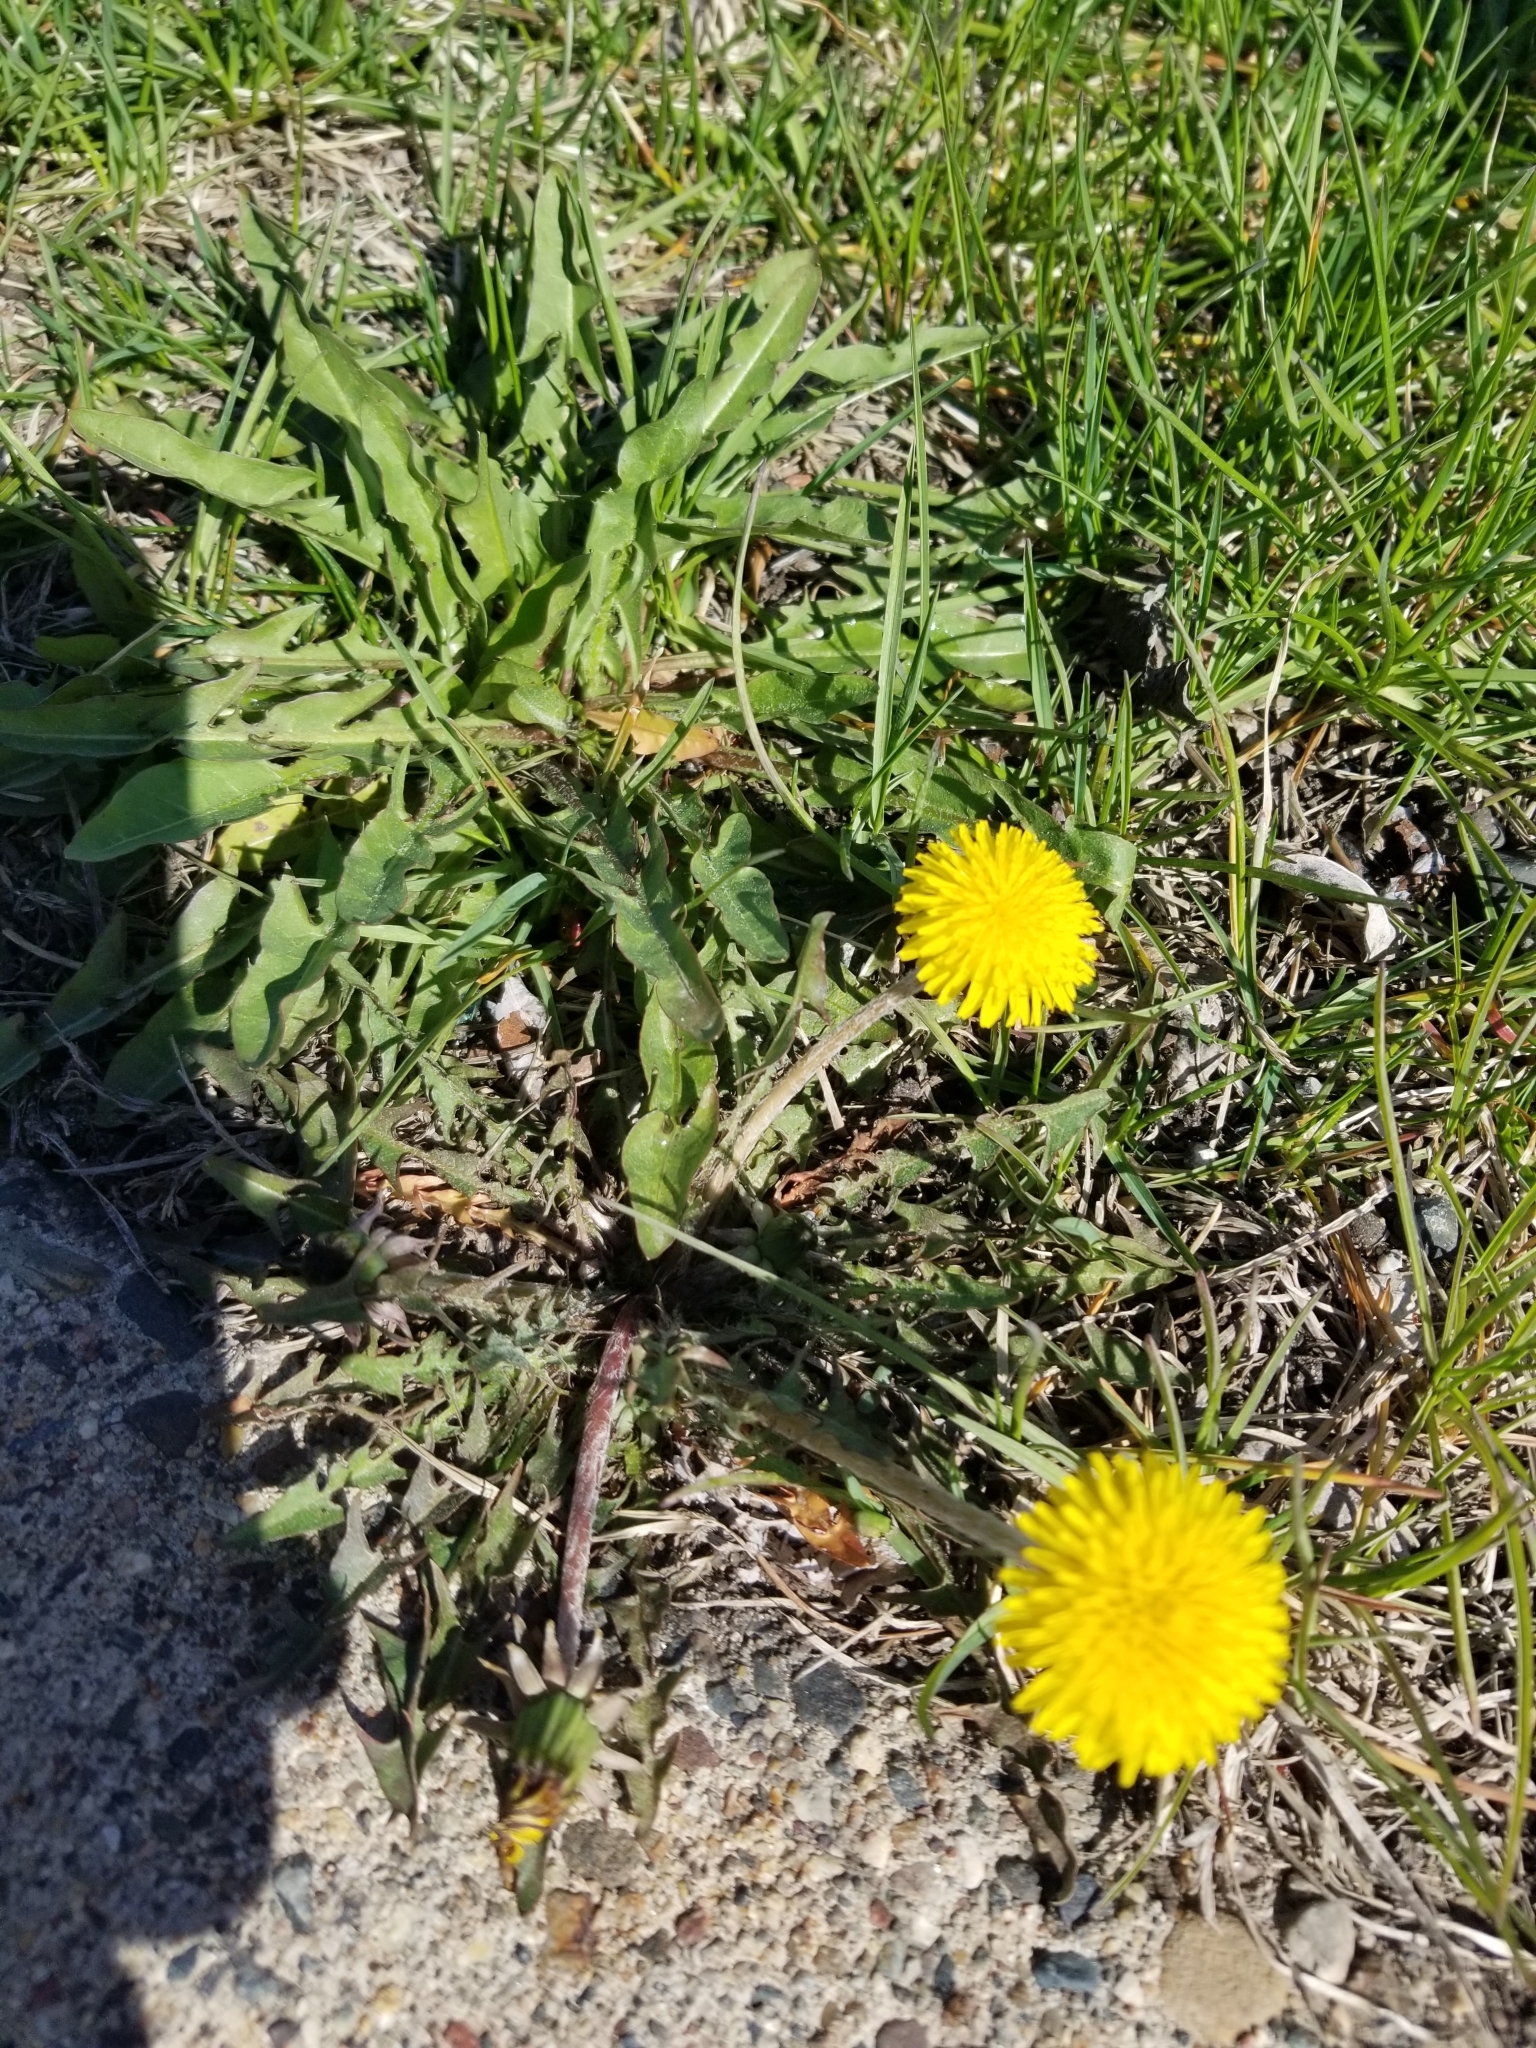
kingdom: Plantae
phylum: Tracheophyta
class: Magnoliopsida
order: Asterales
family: Asteraceae
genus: Taraxacum
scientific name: Taraxacum officinale
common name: Common dandelion
